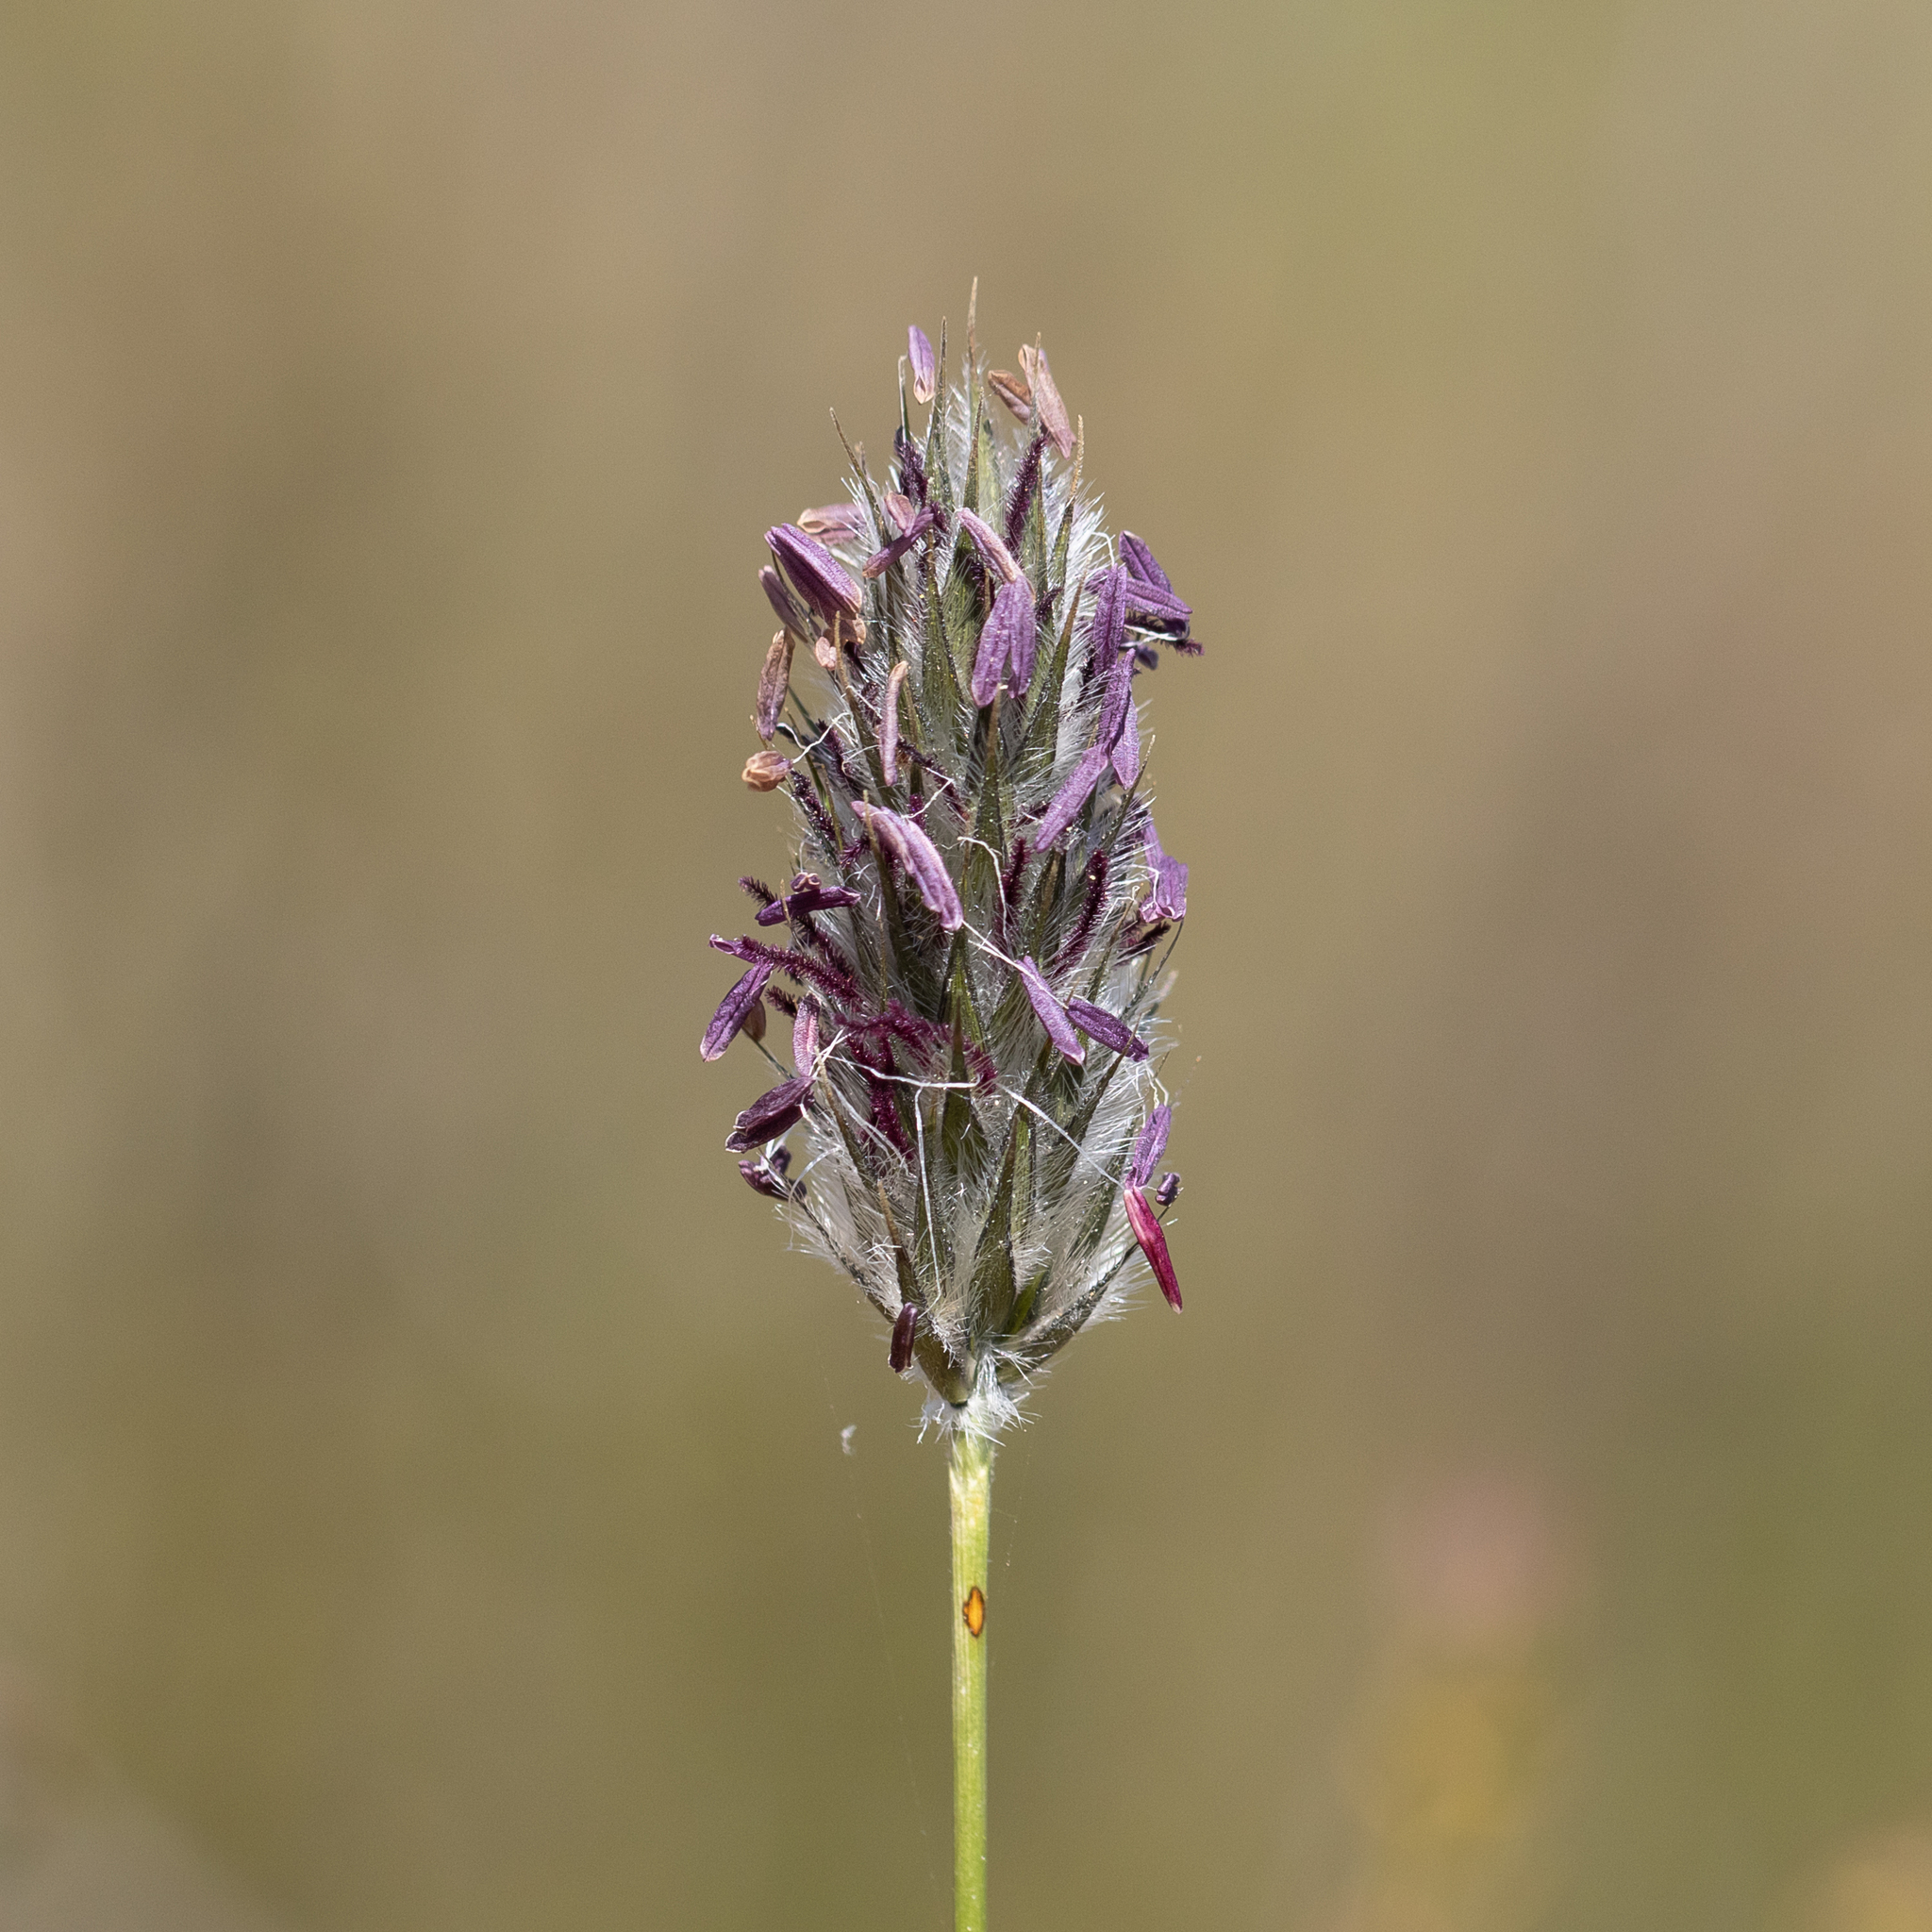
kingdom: Plantae
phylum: Tracheophyta
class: Liliopsida
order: Poales
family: Poaceae
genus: Neurachne
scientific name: Neurachne alopecuroidea
